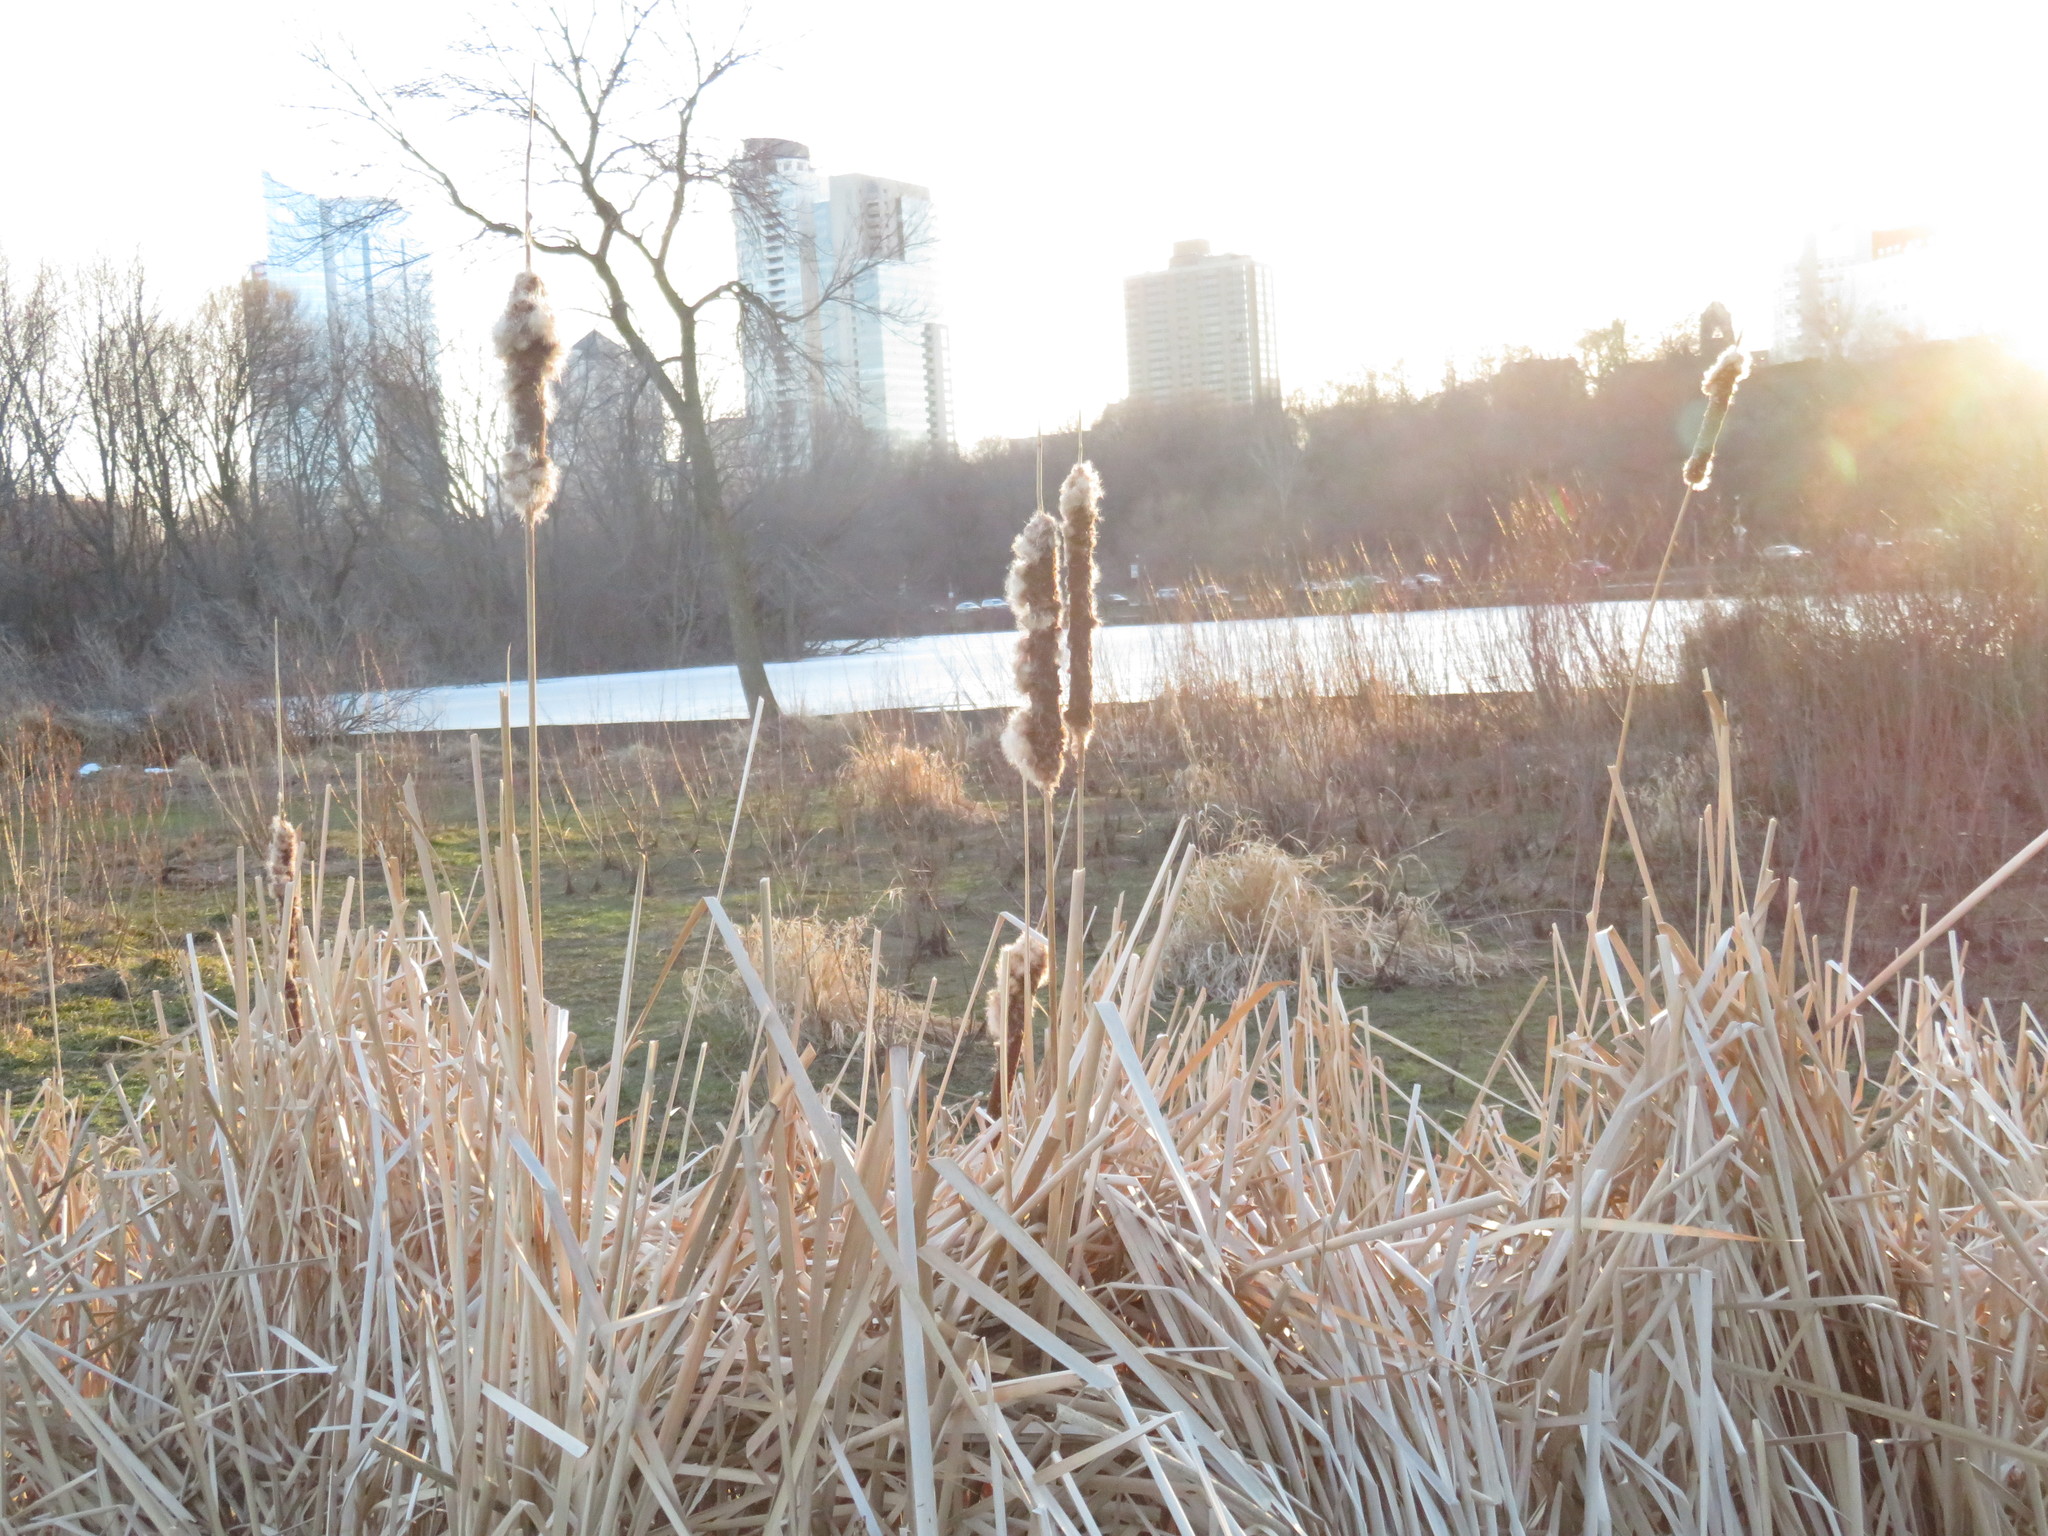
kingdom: Plantae
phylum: Tracheophyta
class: Liliopsida
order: Poales
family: Typhaceae
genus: Typha
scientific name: Typha angustifolia
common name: Lesser bulrush
